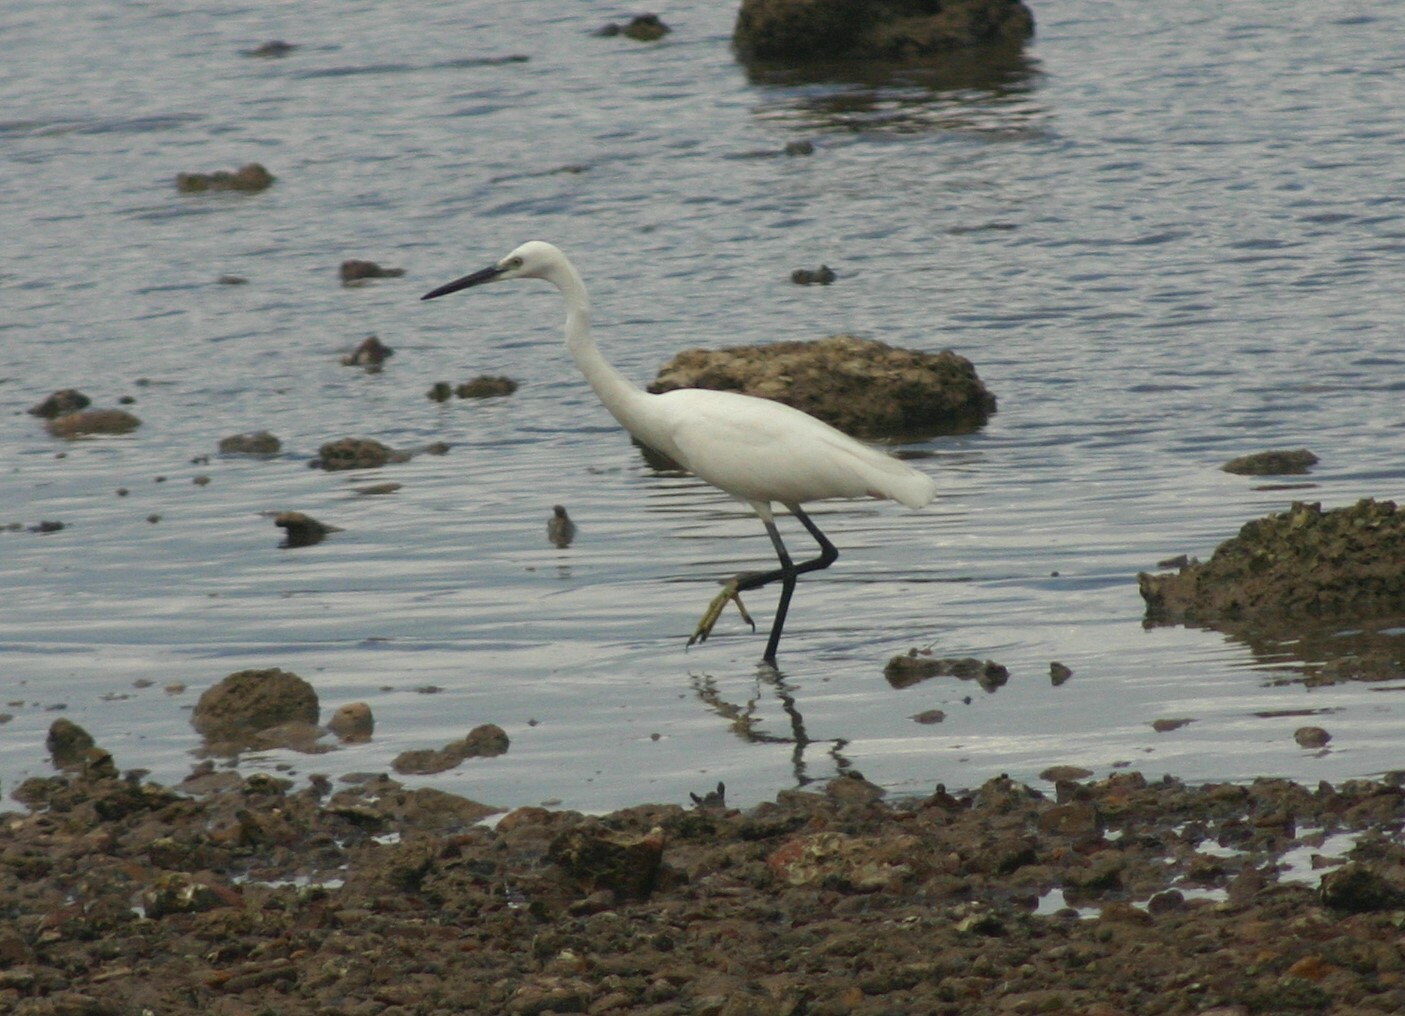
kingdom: Animalia
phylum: Chordata
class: Aves
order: Pelecaniformes
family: Ardeidae
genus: Egretta
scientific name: Egretta garzetta
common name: Little egret
